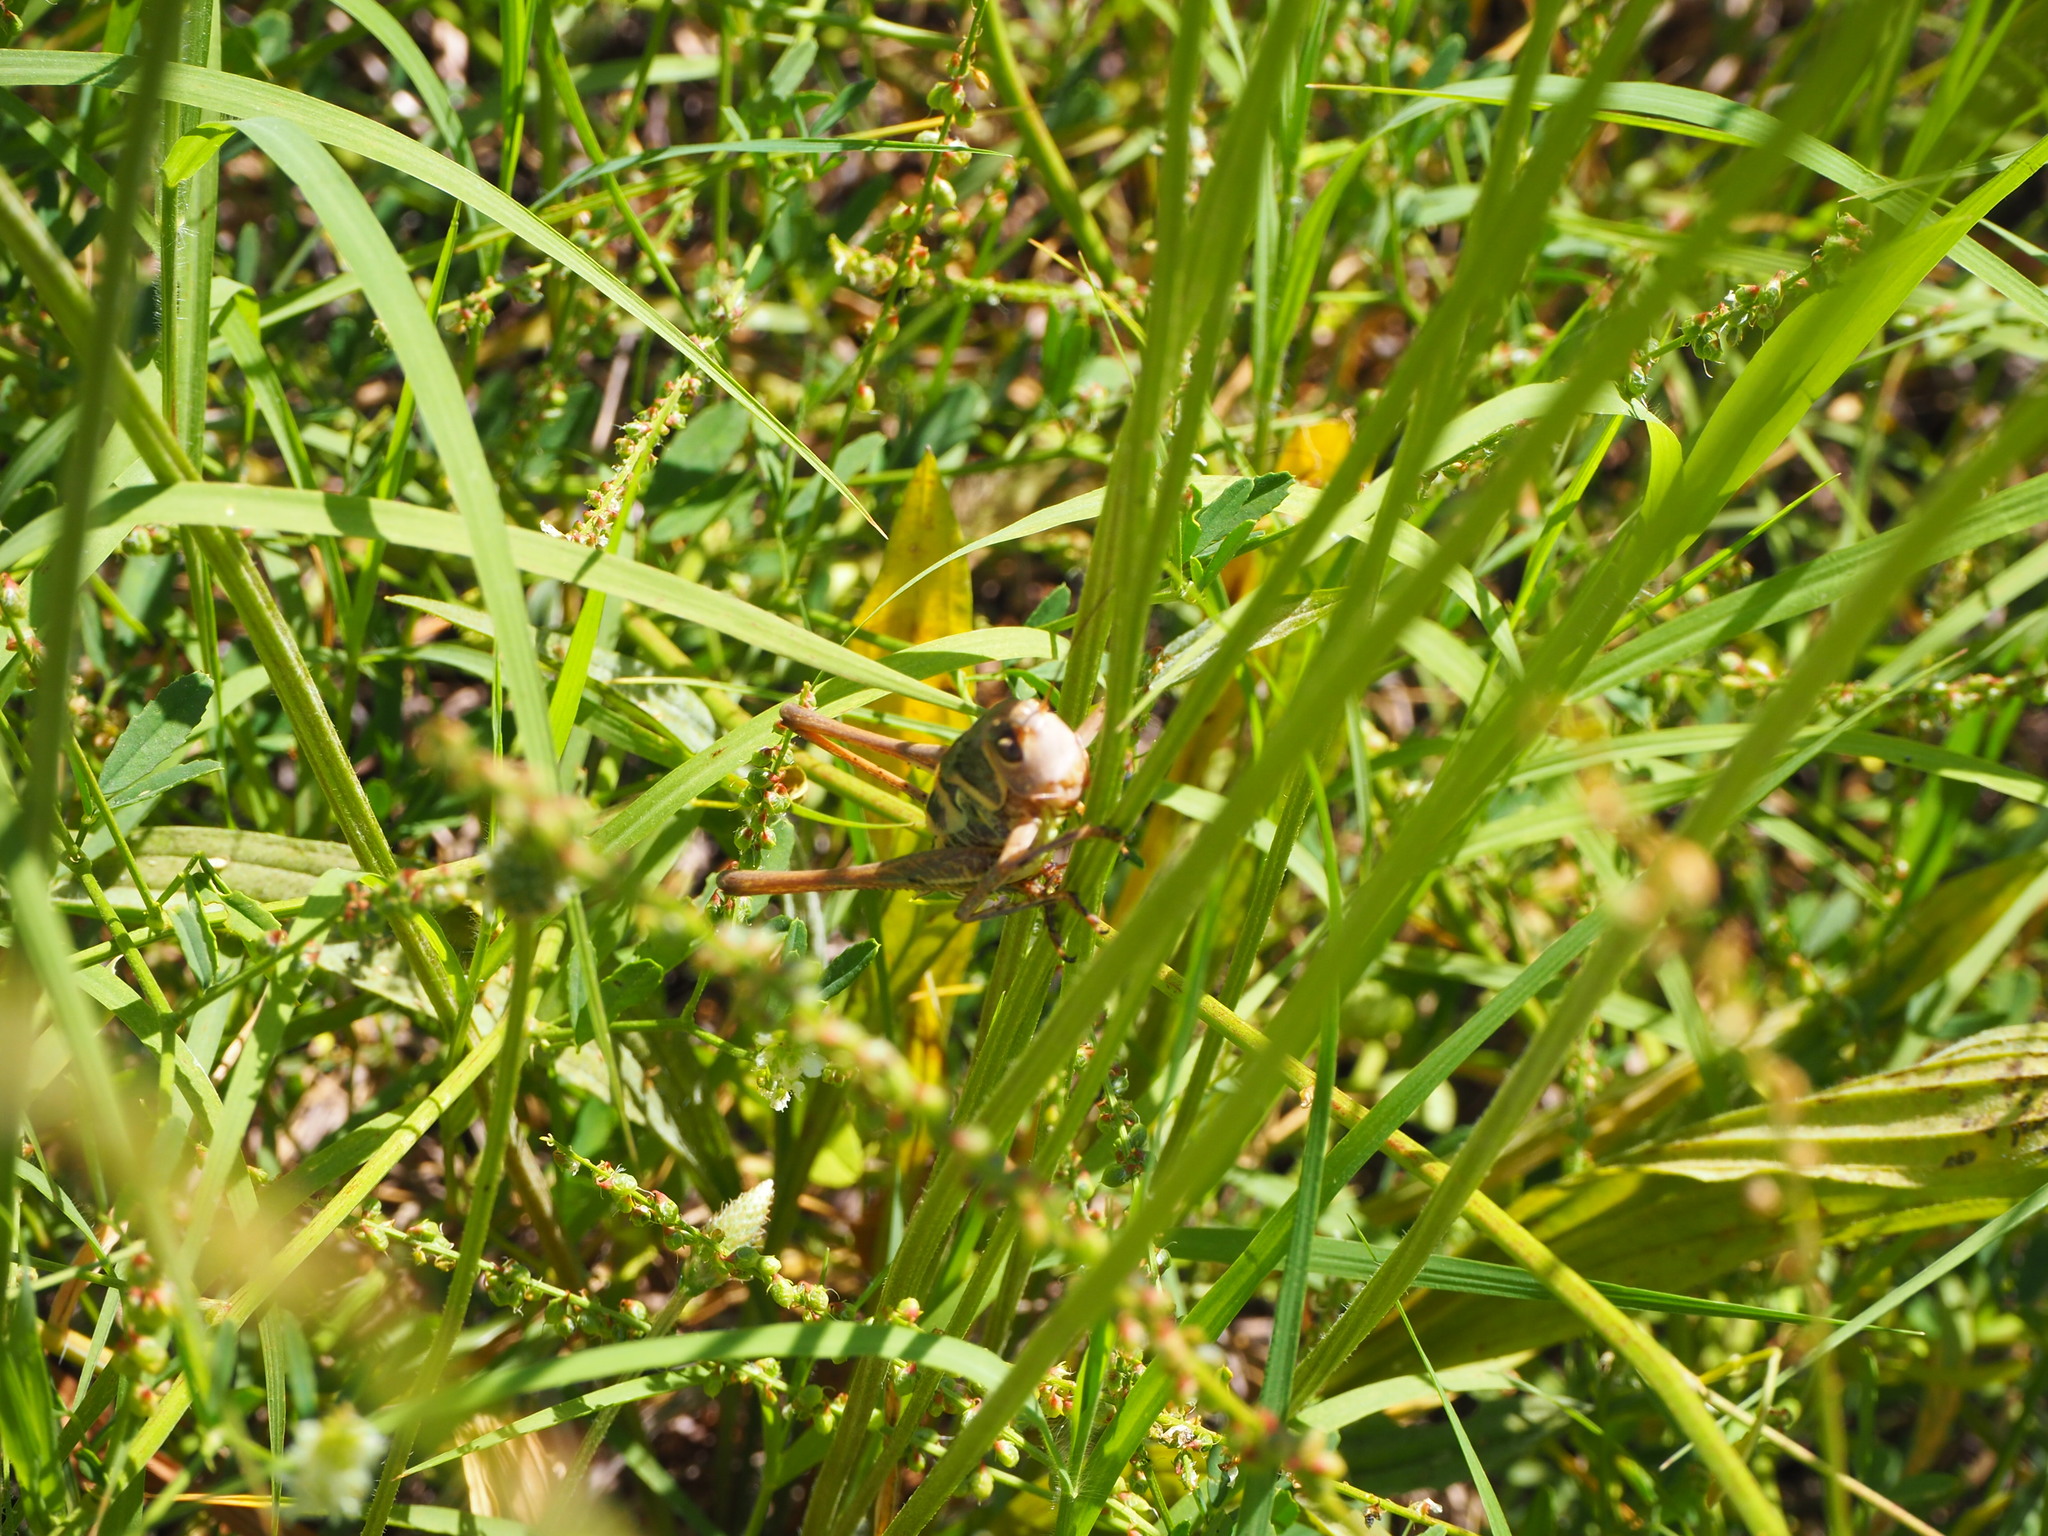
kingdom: Animalia
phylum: Arthropoda
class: Insecta
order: Orthoptera
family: Tettigoniidae
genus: Decticus
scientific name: Decticus albifrons
